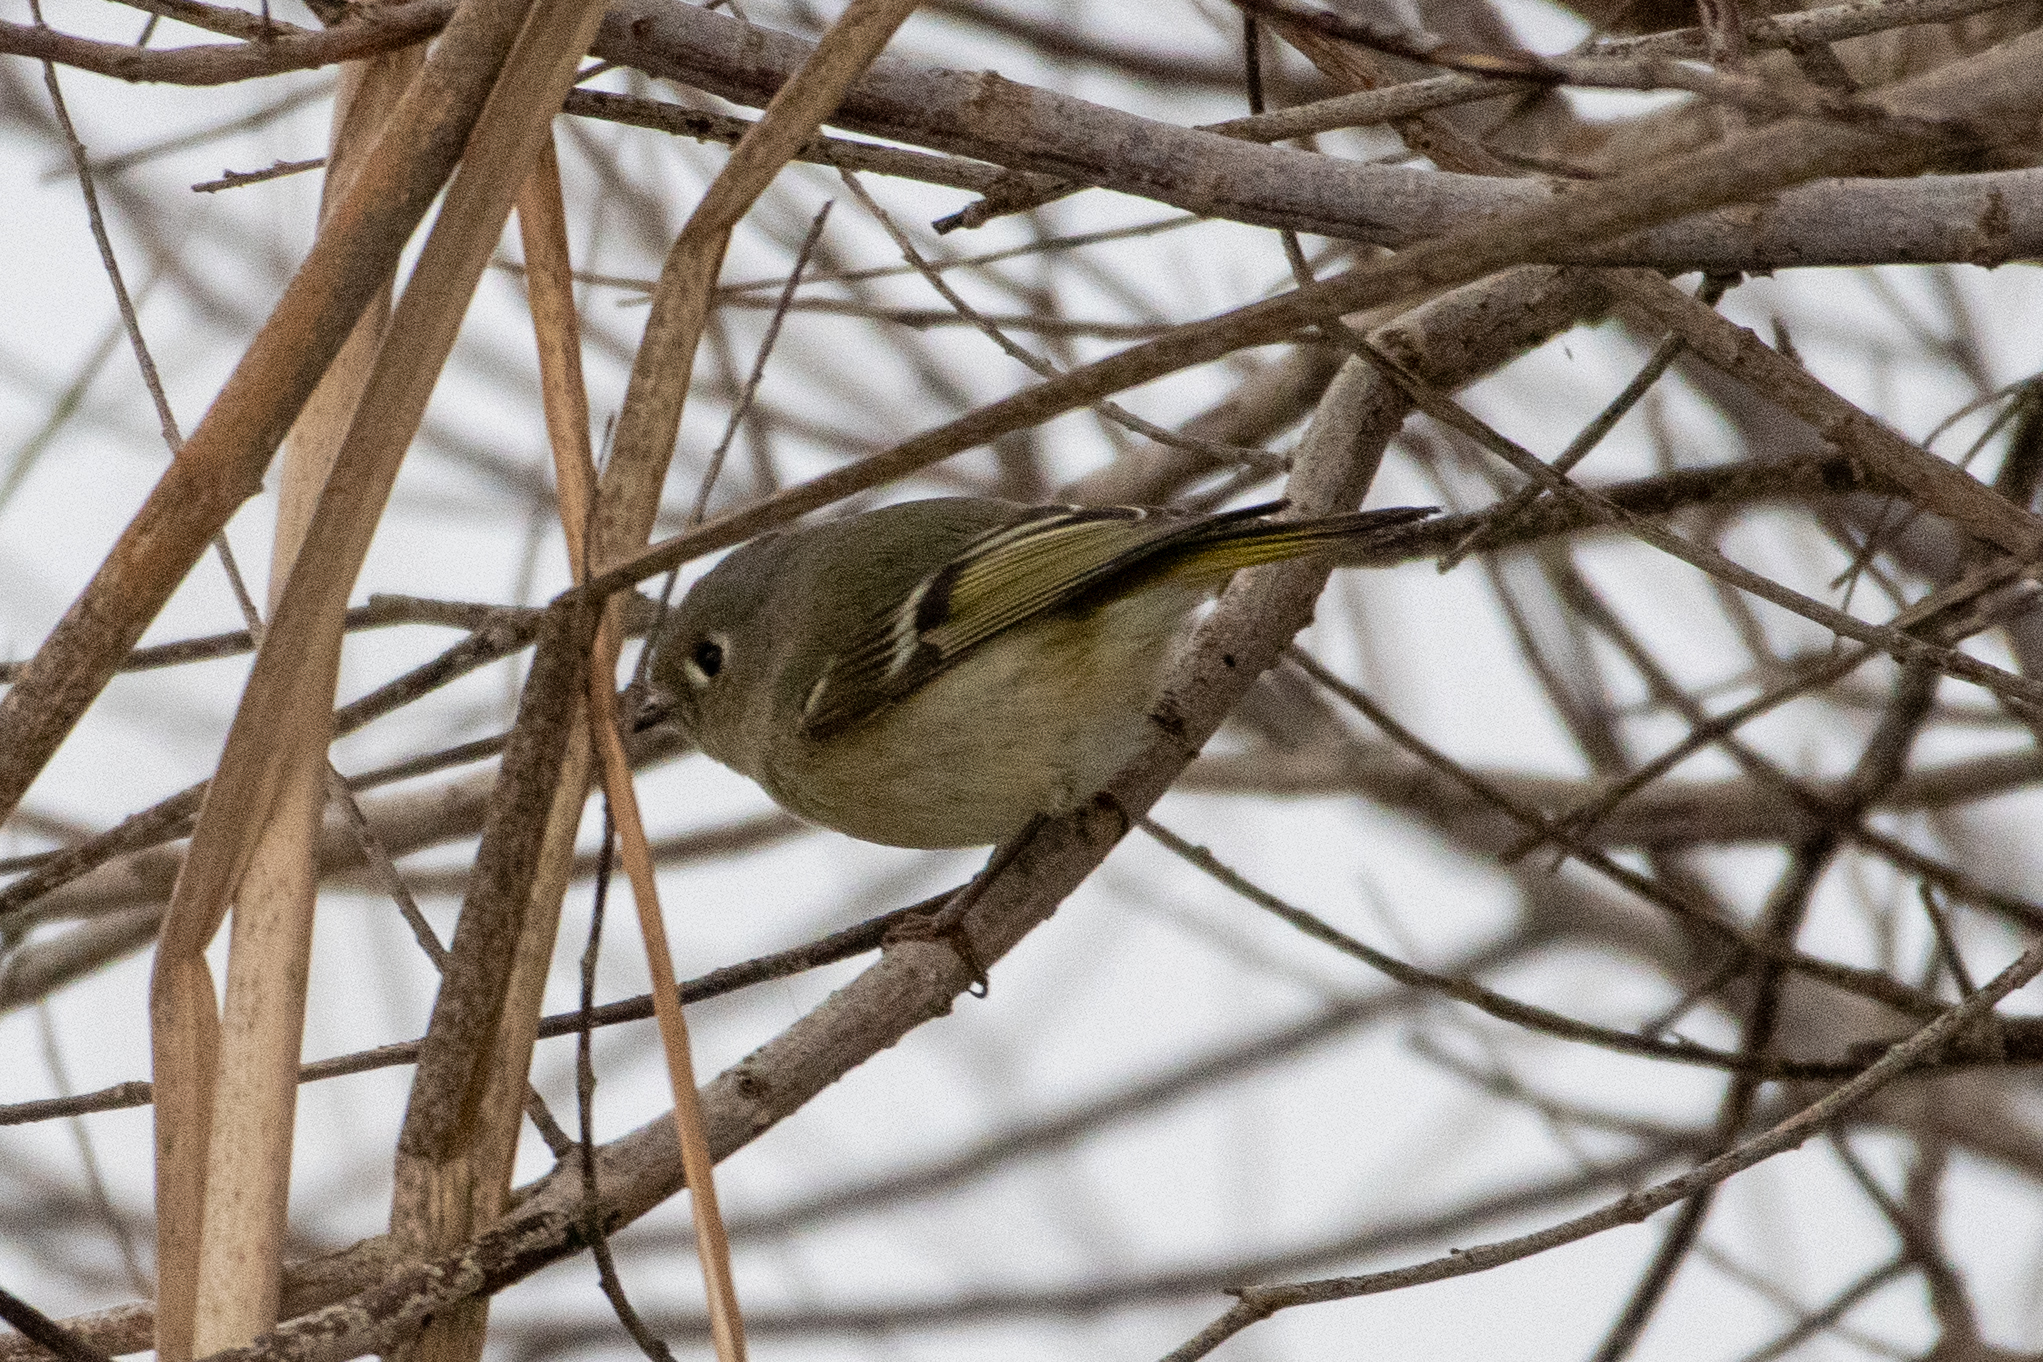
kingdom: Animalia
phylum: Chordata
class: Aves
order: Passeriformes
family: Regulidae
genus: Regulus
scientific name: Regulus calendula
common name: Ruby-crowned kinglet
